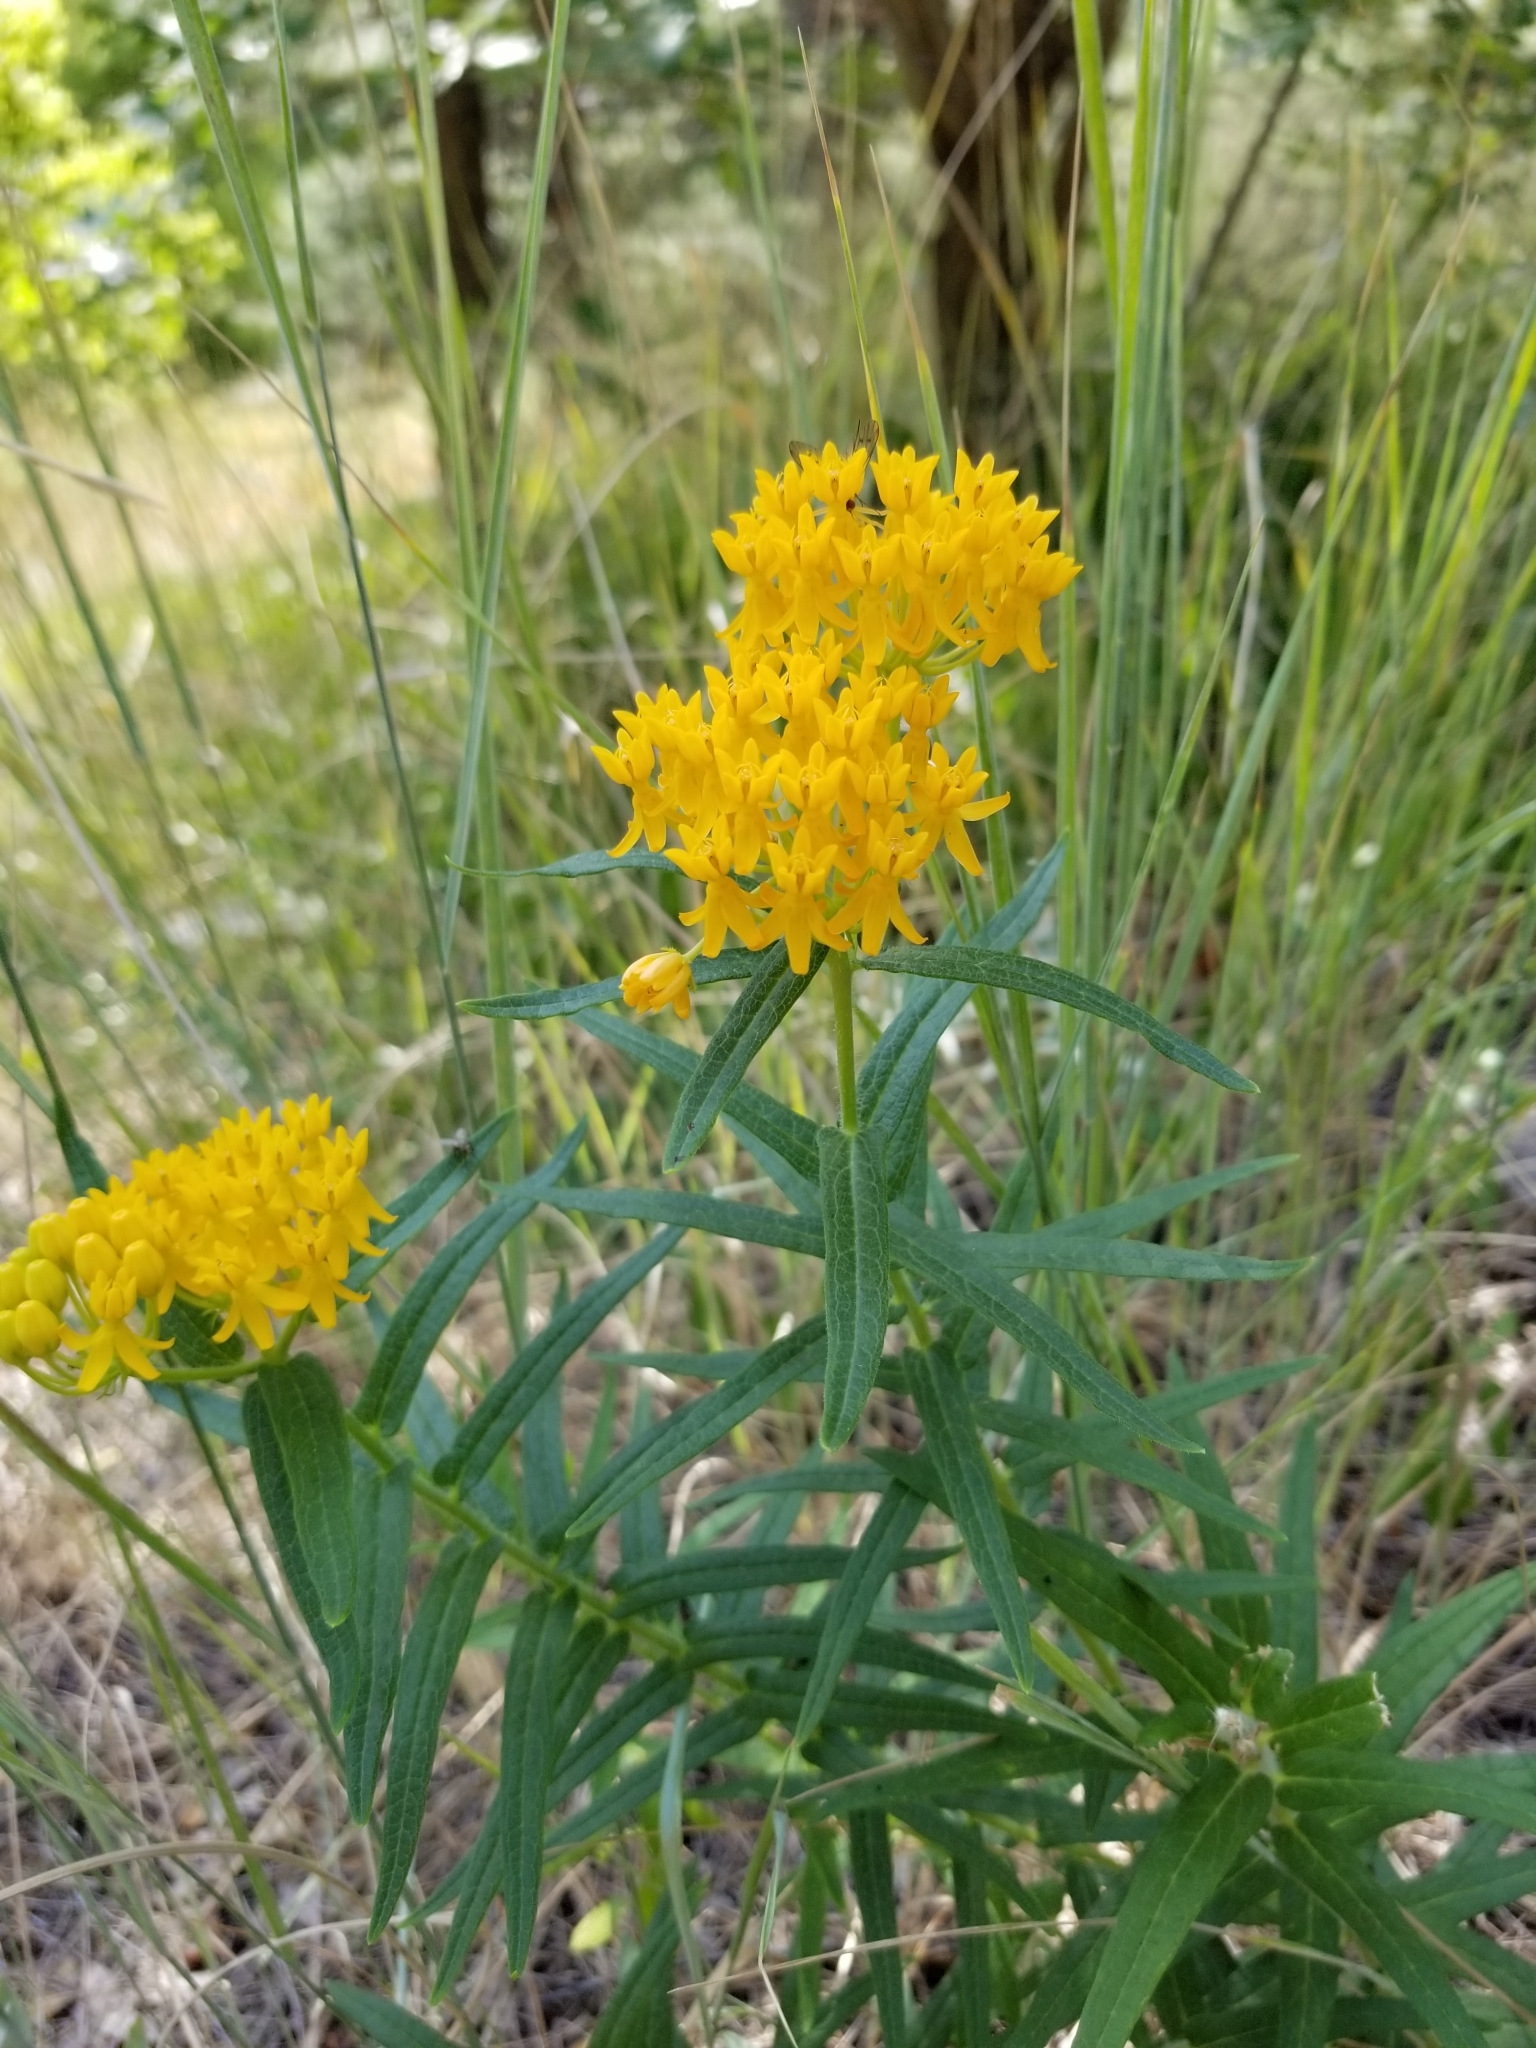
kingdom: Plantae
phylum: Tracheophyta
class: Magnoliopsida
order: Gentianales
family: Apocynaceae
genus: Asclepias
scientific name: Asclepias tuberosa
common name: Butterfly milkweed
